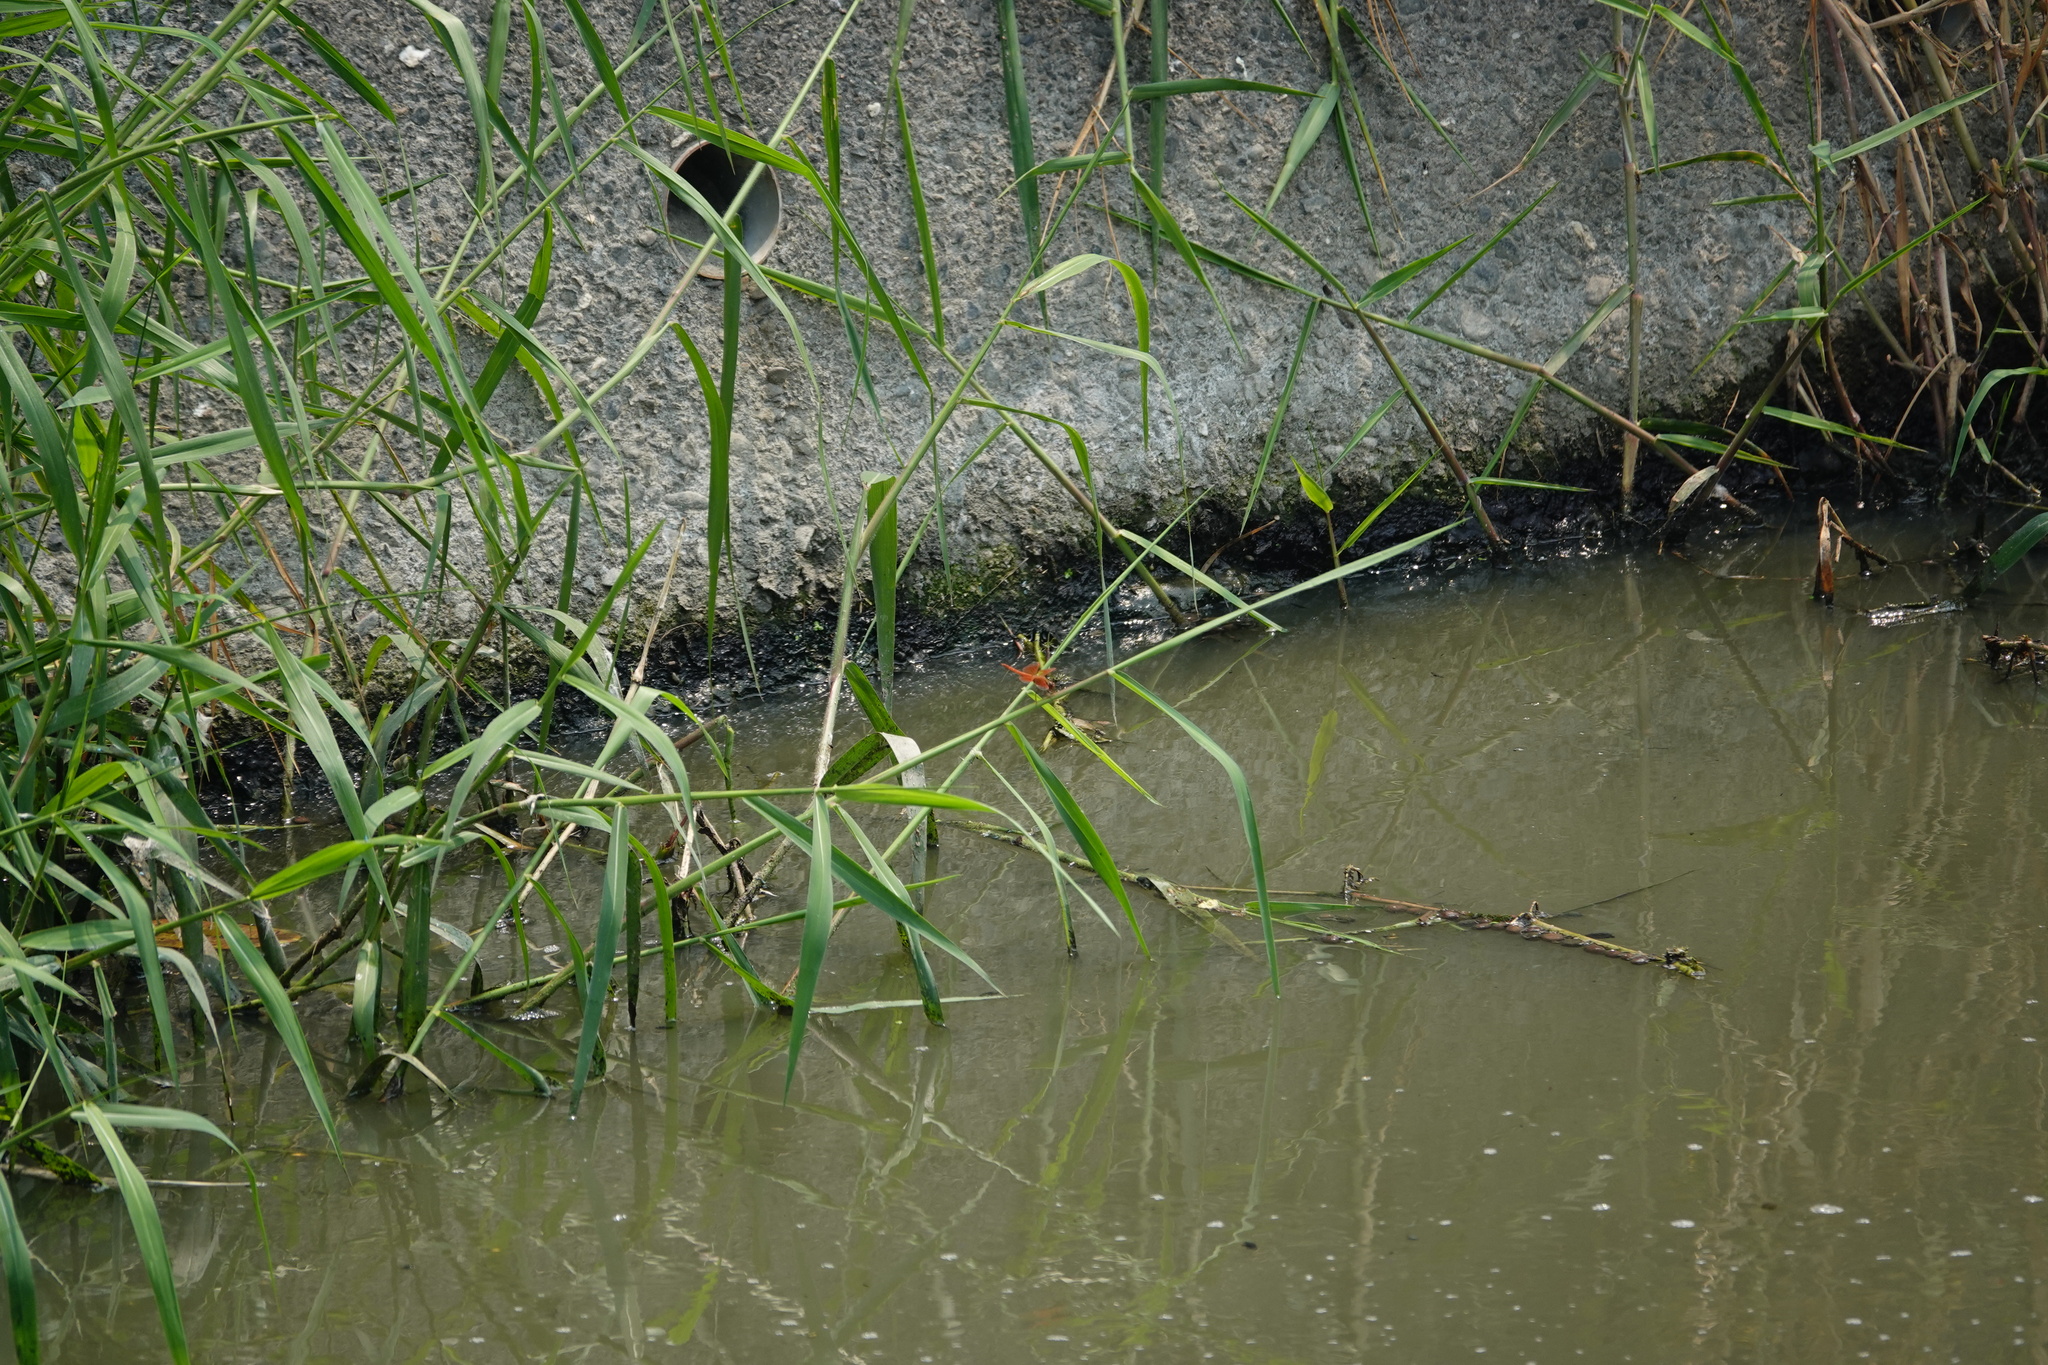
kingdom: Animalia
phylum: Arthropoda
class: Insecta
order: Odonata
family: Libellulidae
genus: Brachythemis
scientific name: Brachythemis contaminata
